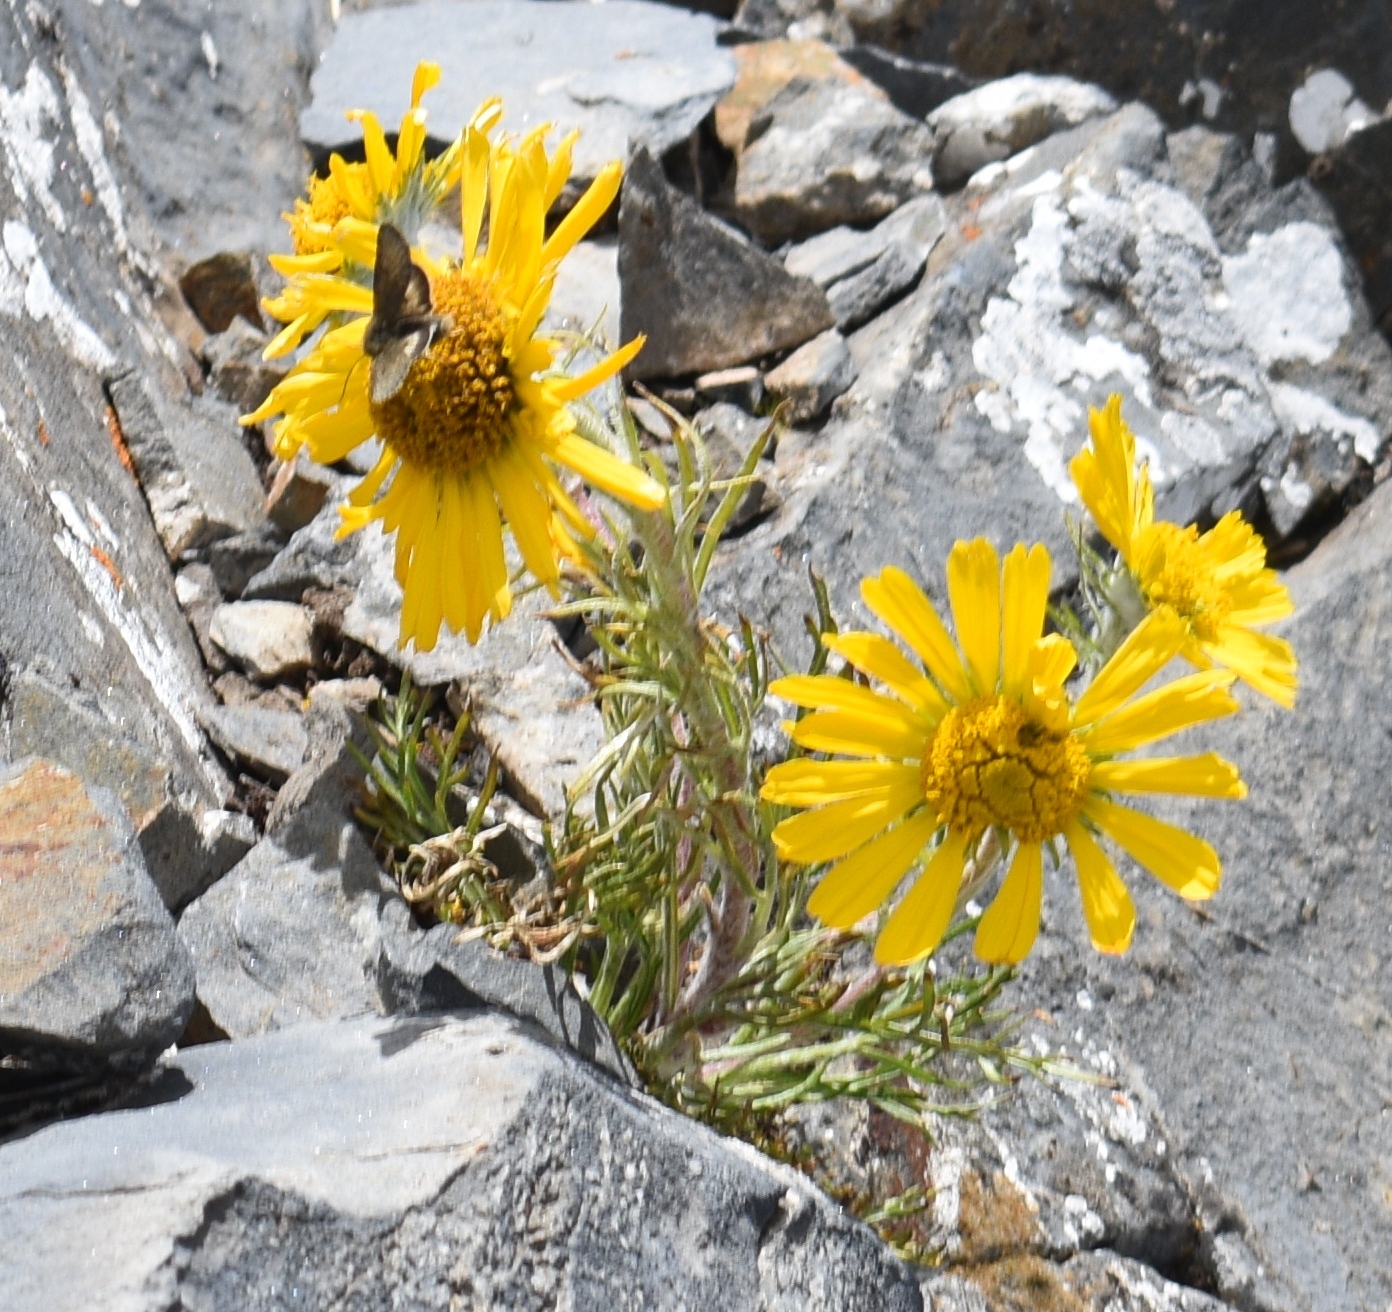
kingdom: Plantae
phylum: Tracheophyta
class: Magnoliopsida
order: Asterales
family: Asteraceae
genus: Hymenoxys
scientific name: Hymenoxys grandiflora
